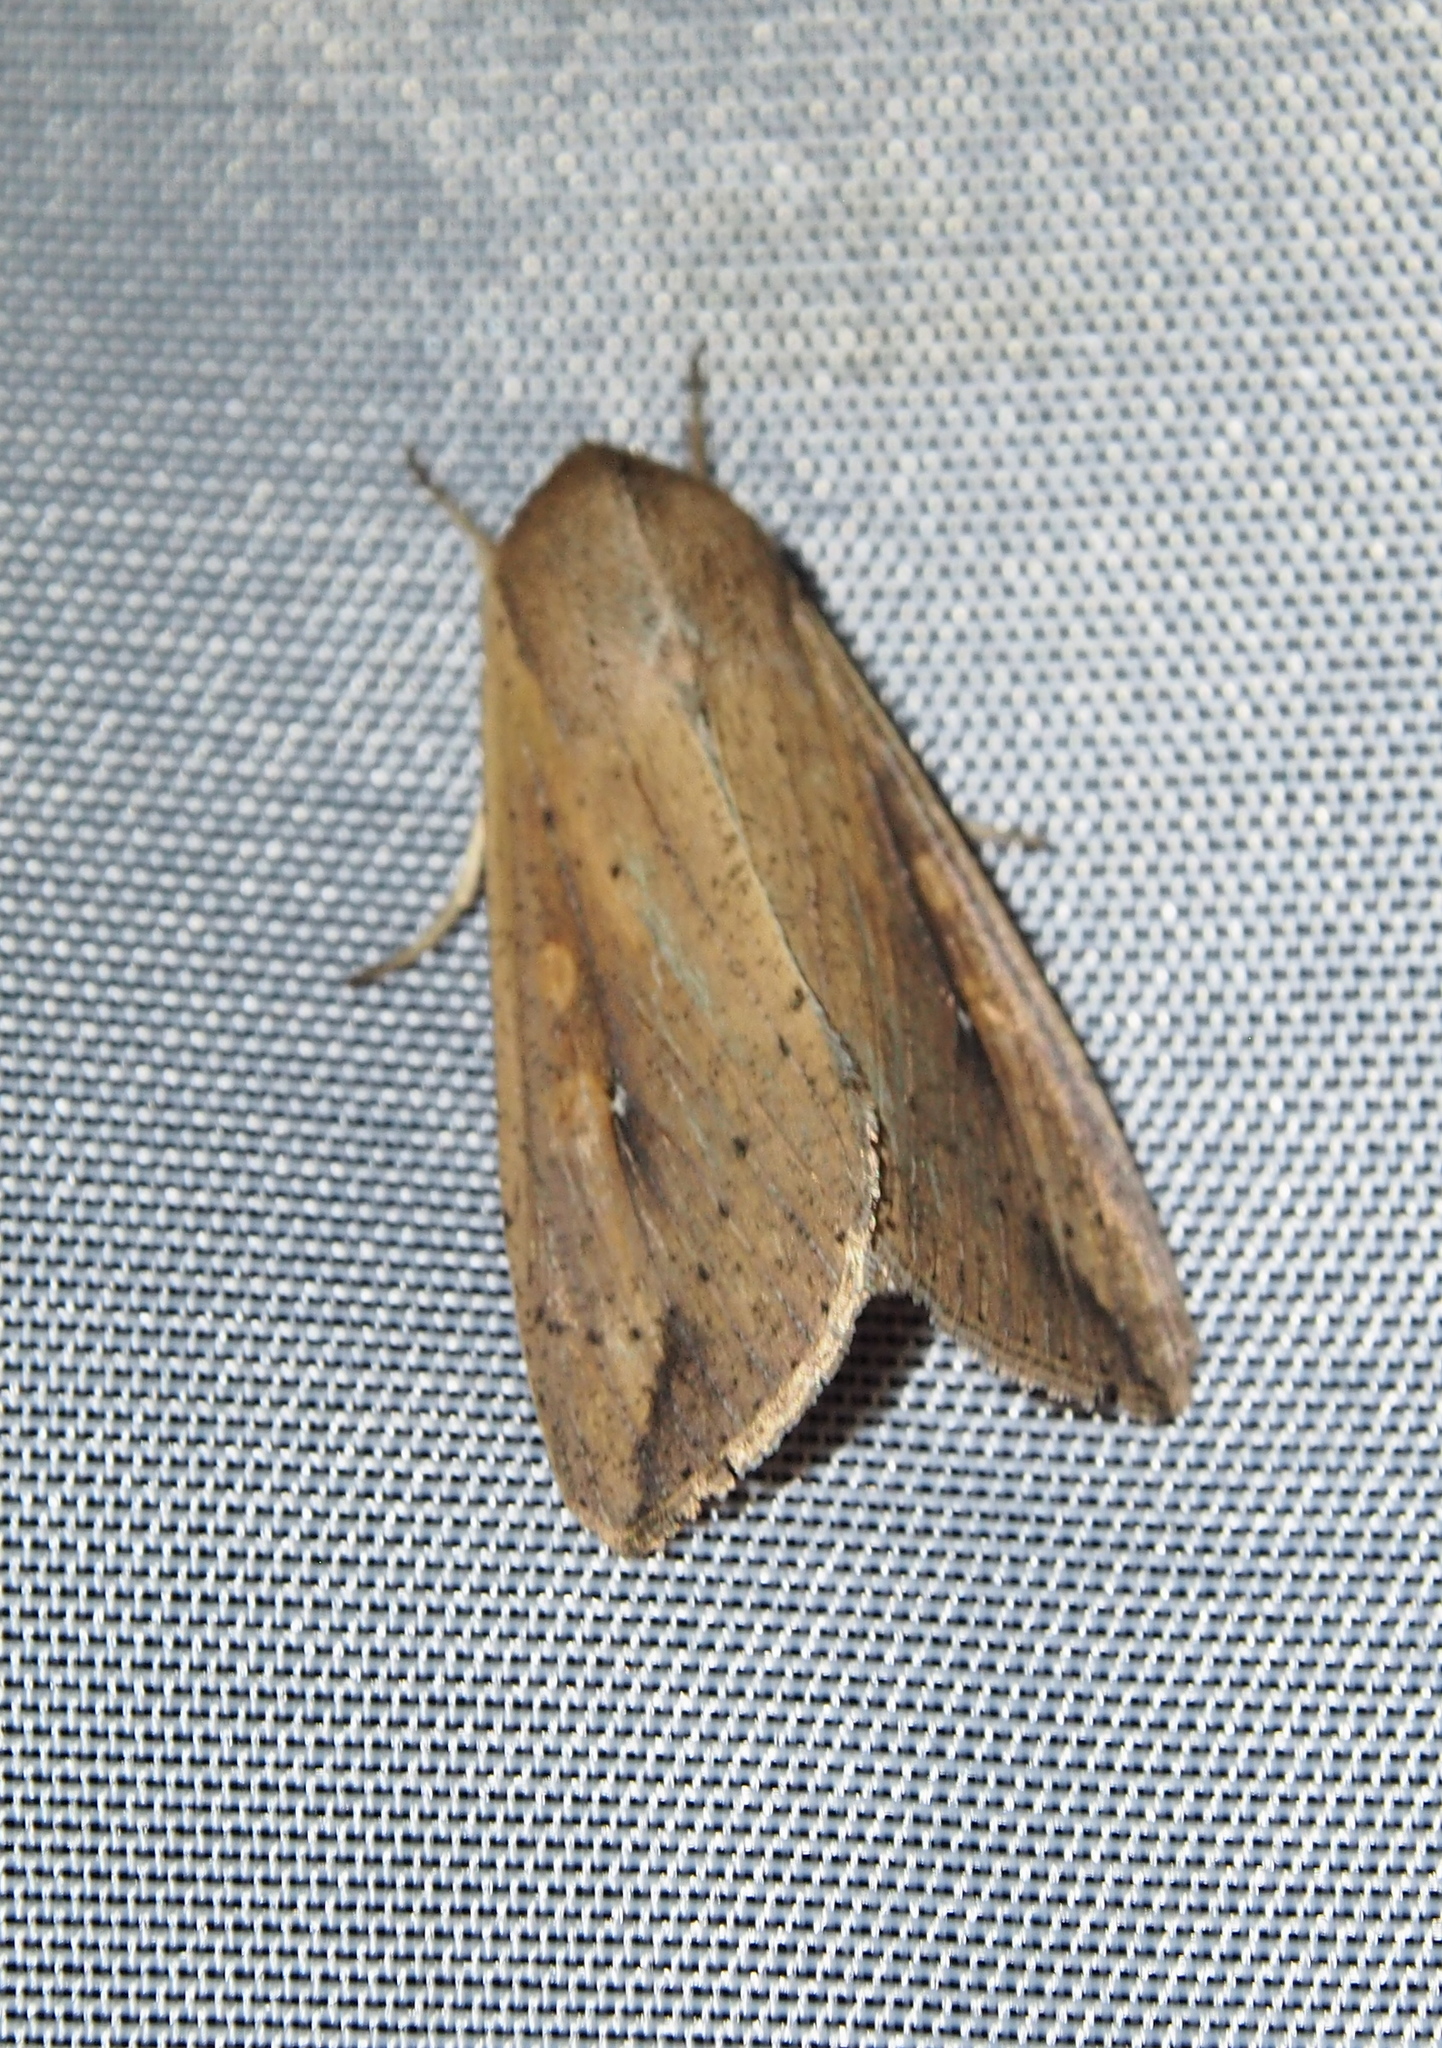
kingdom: Animalia
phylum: Arthropoda
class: Insecta
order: Lepidoptera
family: Noctuidae
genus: Mythimna
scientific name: Mythimna unipuncta
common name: White-speck
